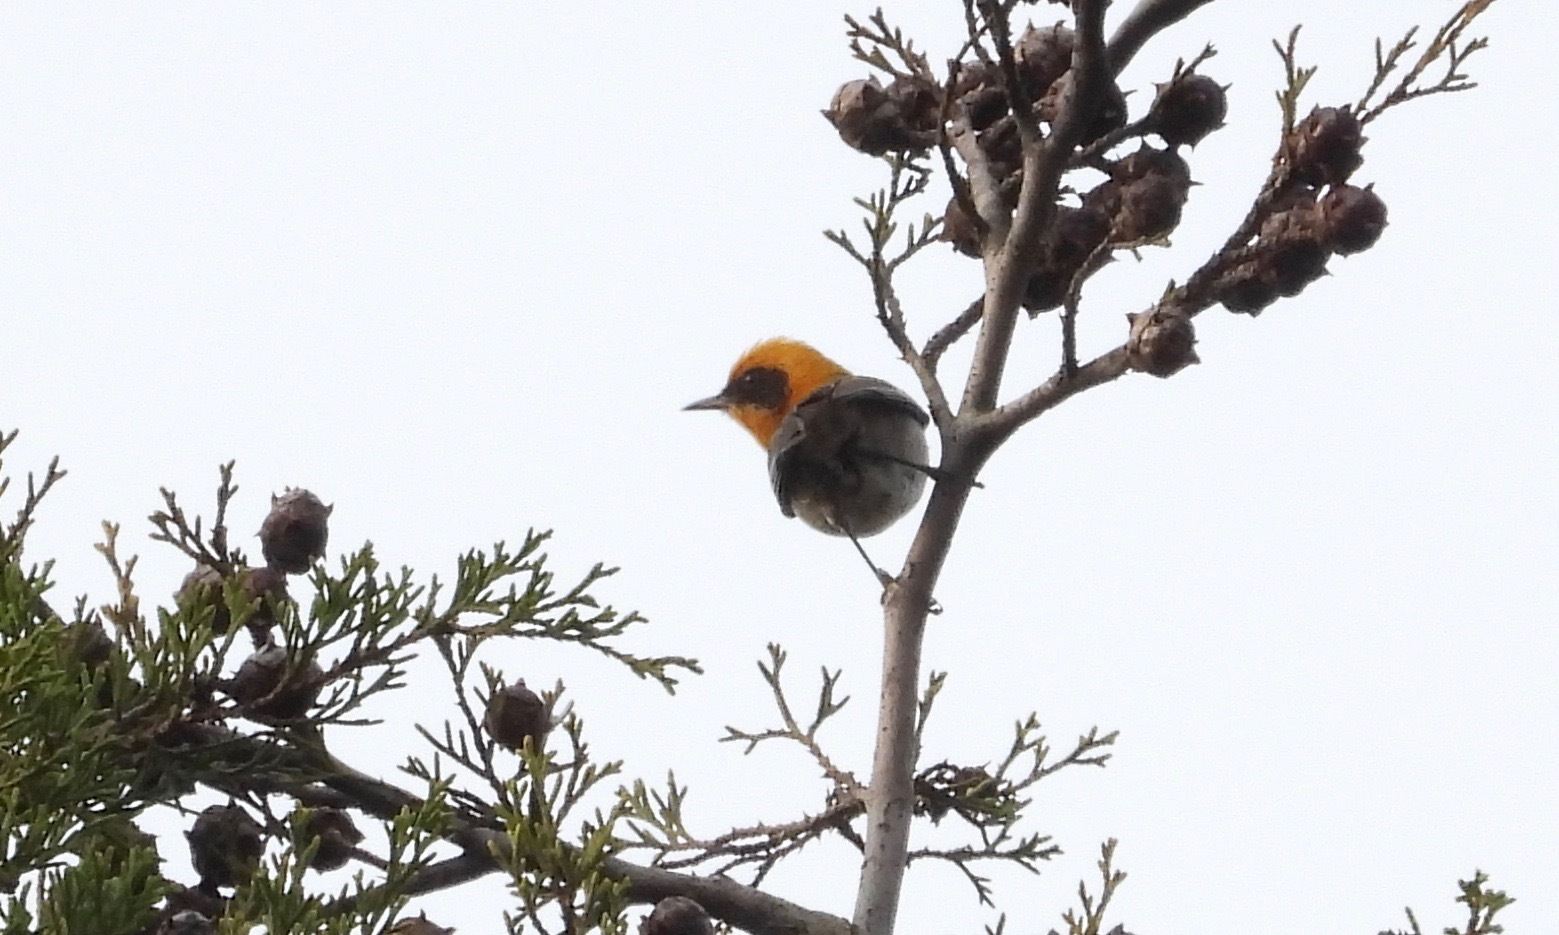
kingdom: Animalia
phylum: Chordata
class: Aves
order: Passeriformes
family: Peucedramidae
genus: Peucedramus
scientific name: Peucedramus taeniatus
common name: Olive warbler
